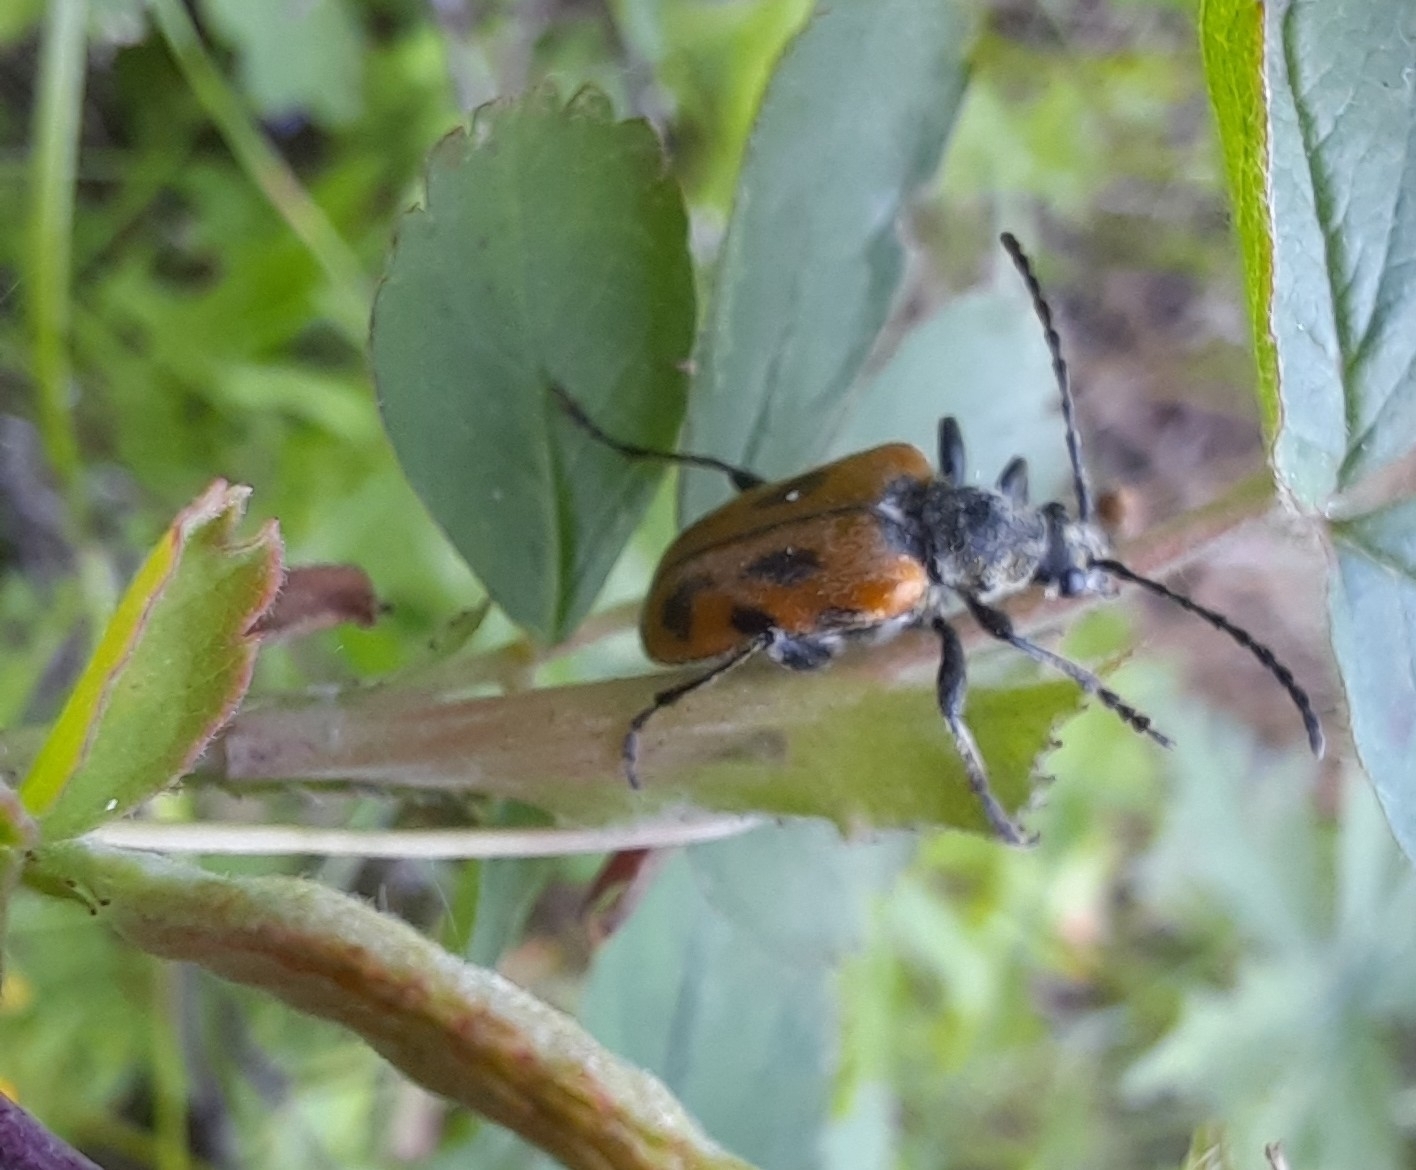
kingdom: Animalia
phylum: Arthropoda
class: Insecta
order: Coleoptera
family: Cerambycidae
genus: Brachyta
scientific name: Brachyta interrogationis
